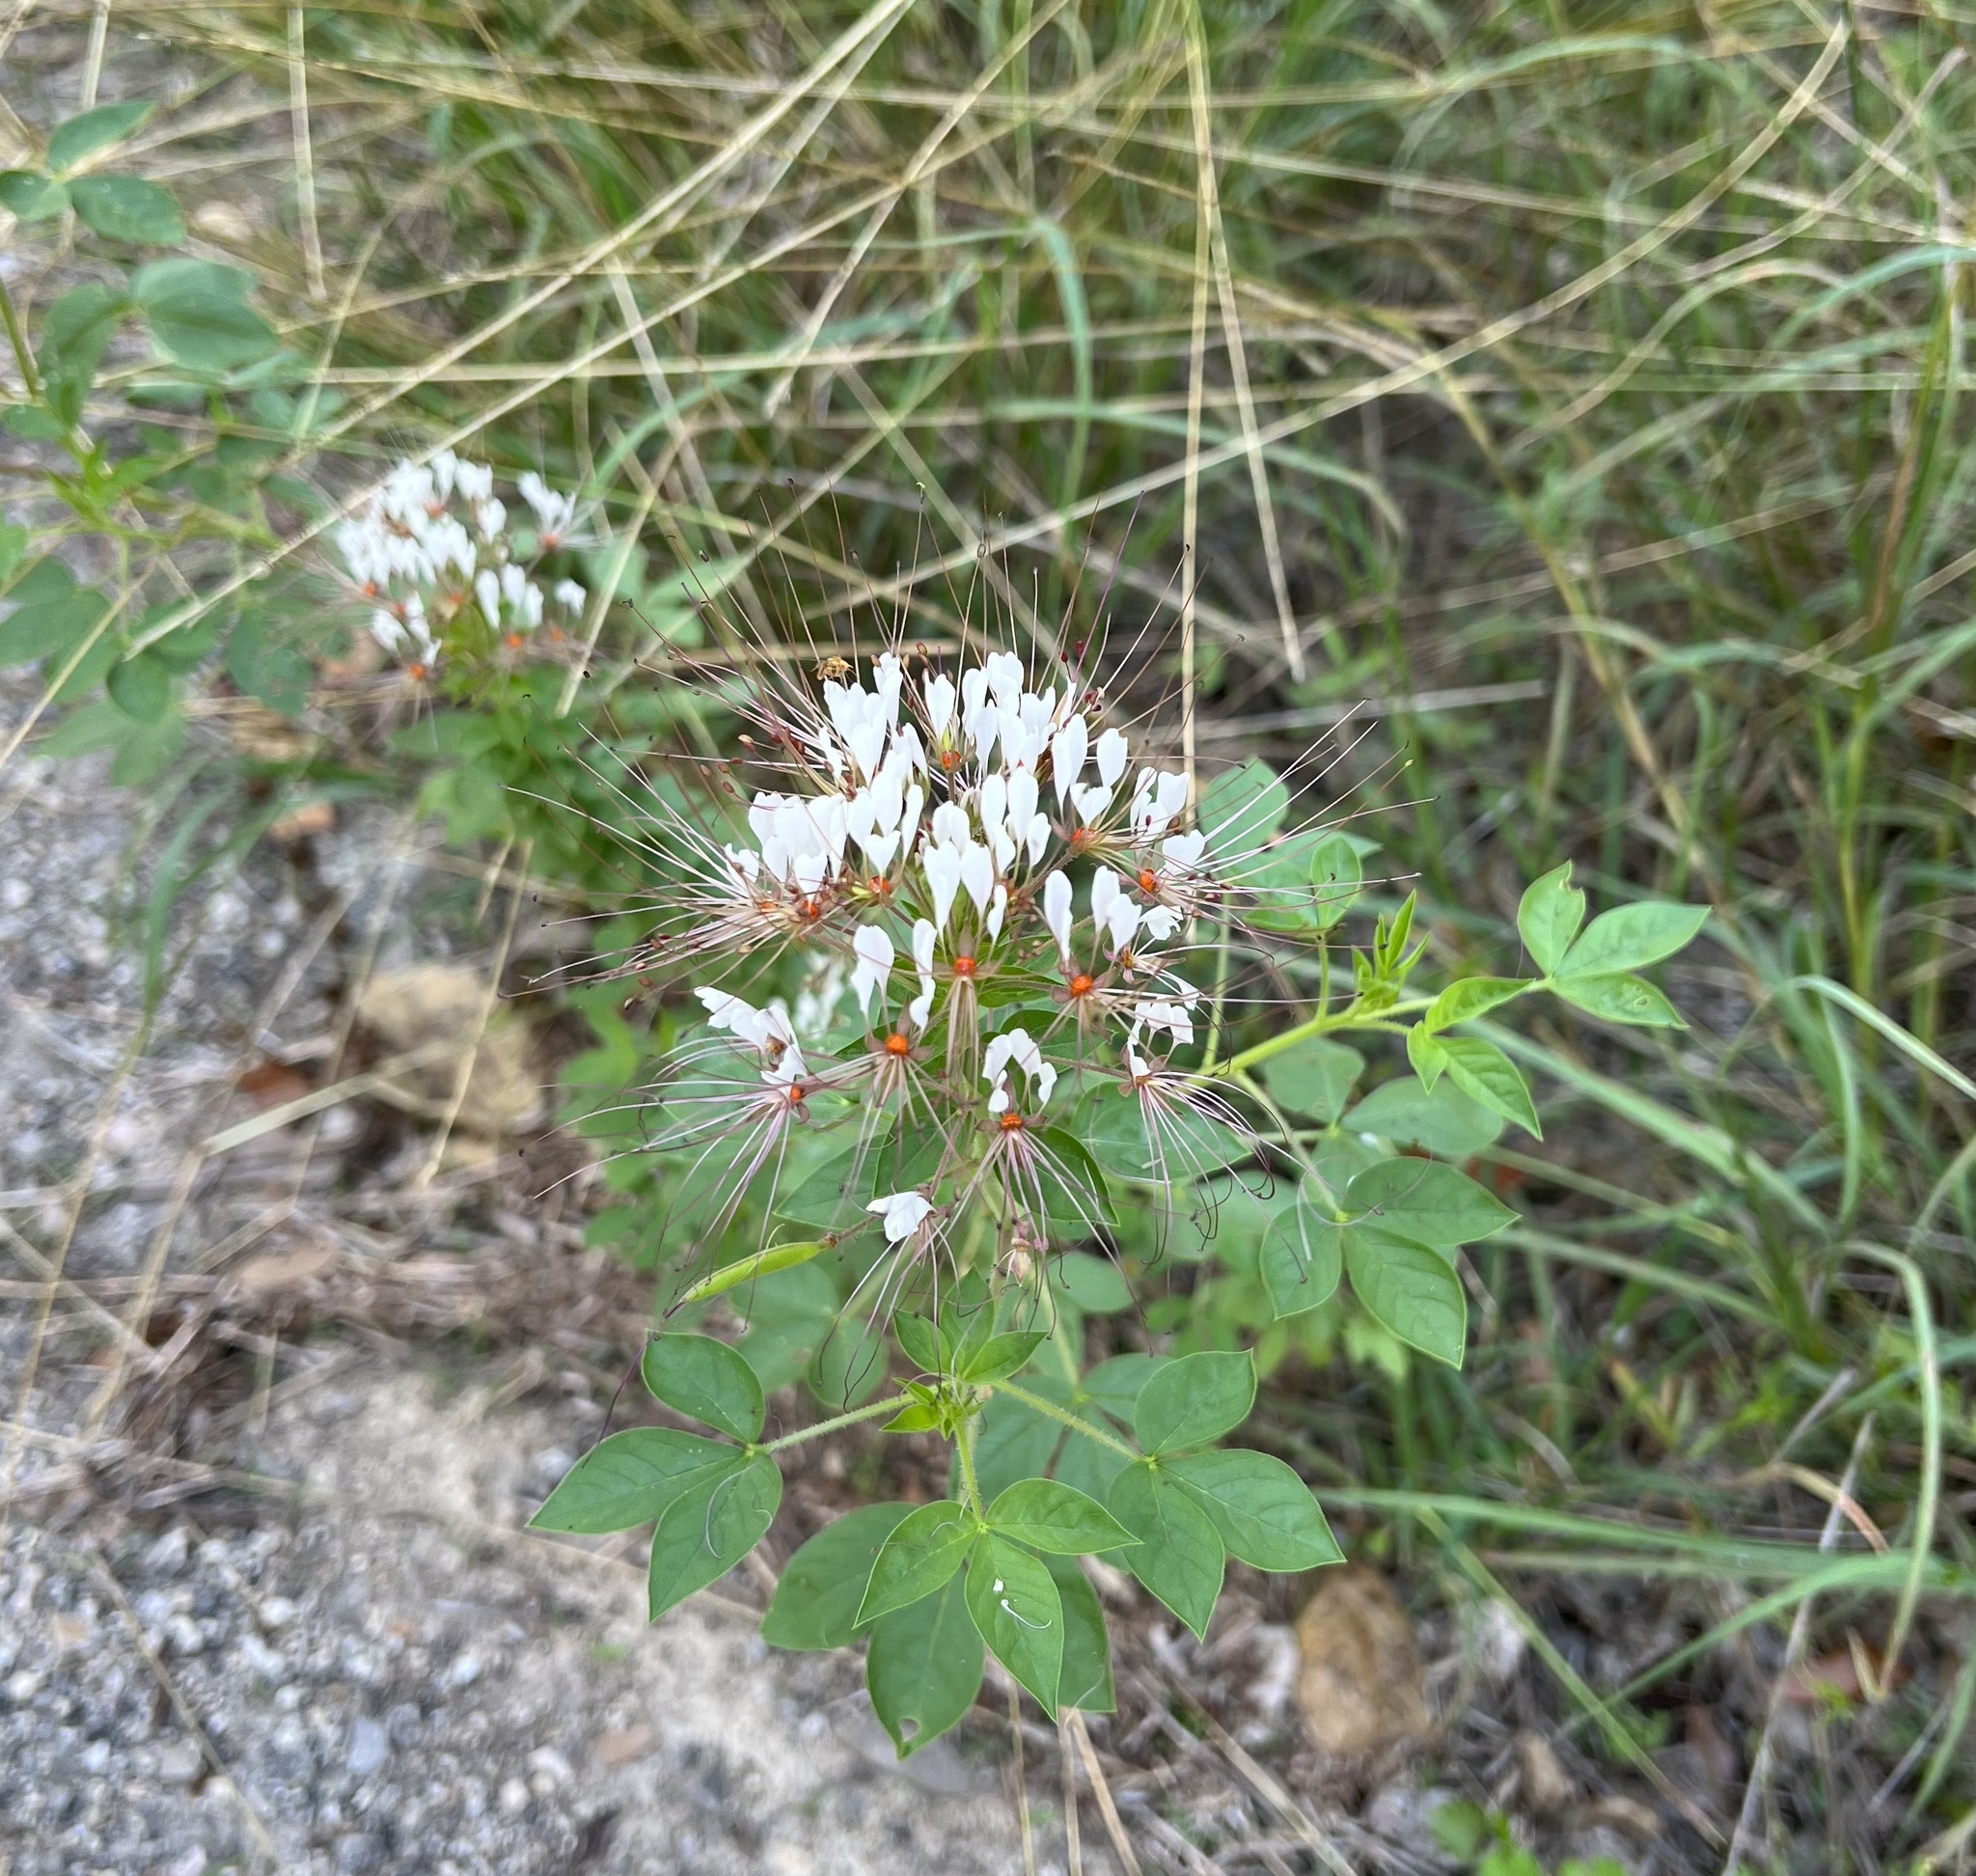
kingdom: Plantae
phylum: Tracheophyta
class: Magnoliopsida
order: Brassicales
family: Cleomaceae
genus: Polanisia
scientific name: Polanisia dodecandra
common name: Clammyweed
